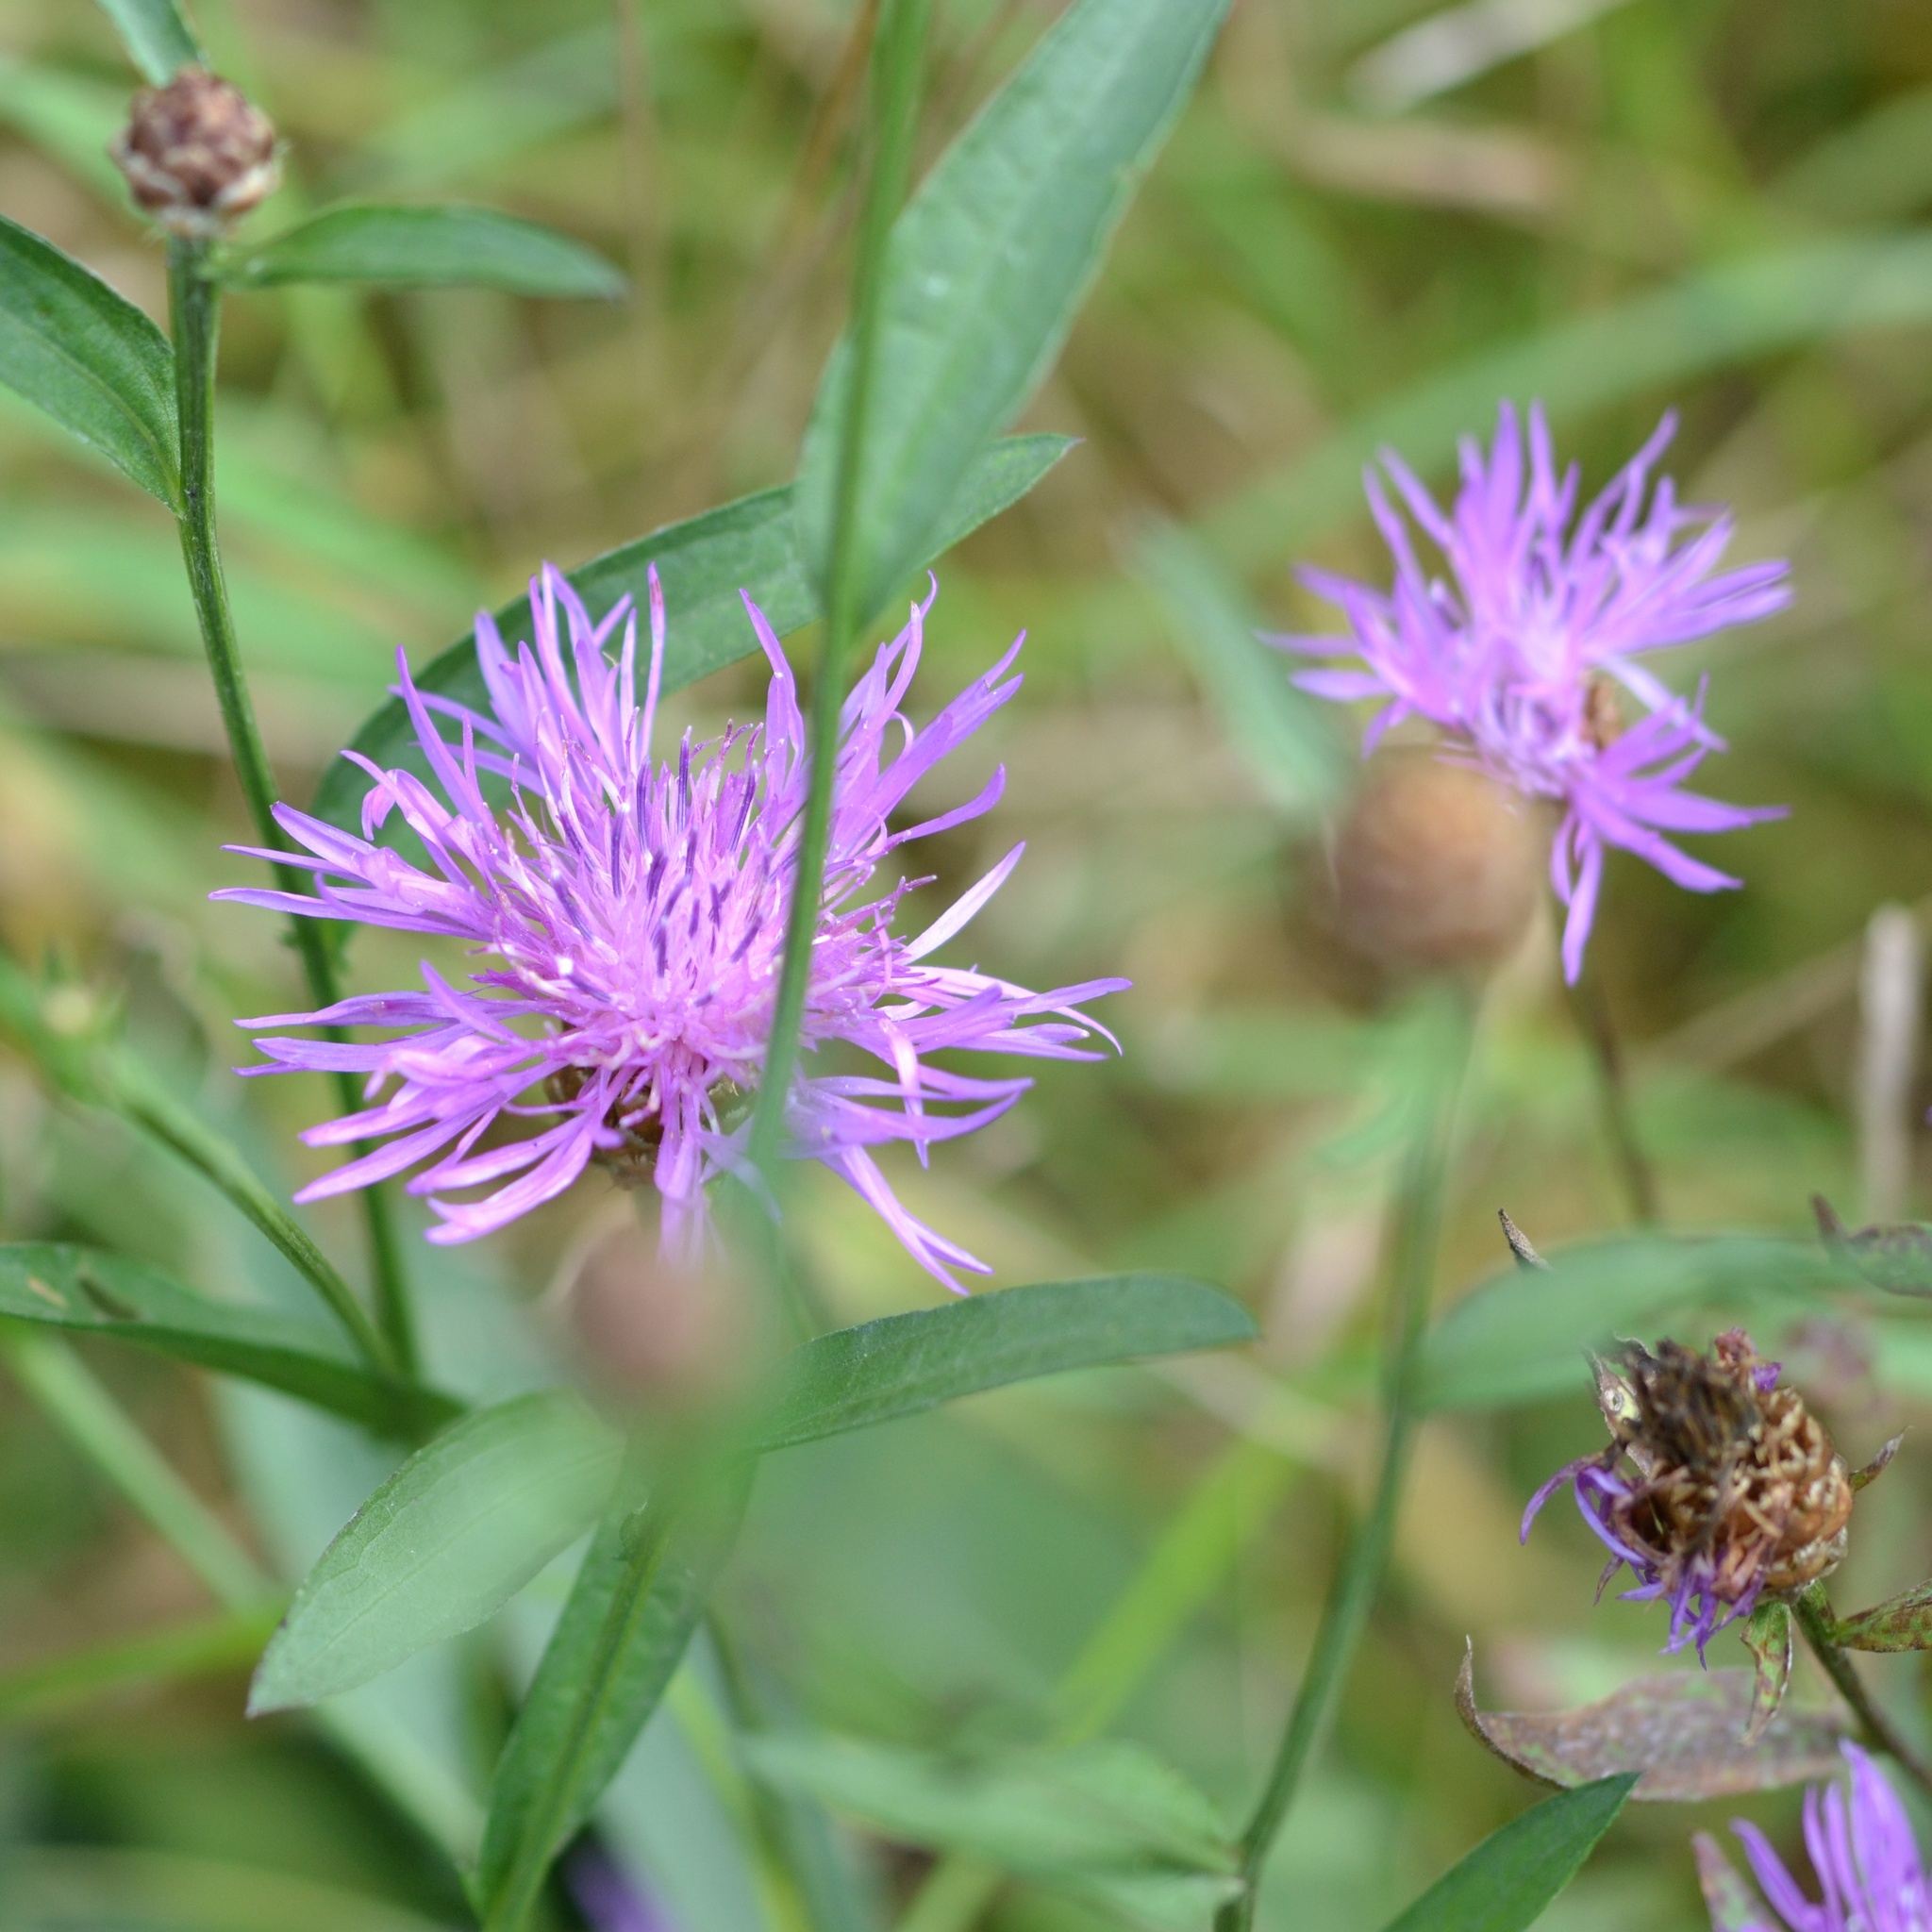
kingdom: Plantae
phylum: Tracheophyta
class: Magnoliopsida
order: Asterales
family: Asteraceae
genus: Centaurea
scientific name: Centaurea jacea
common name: Brown knapweed
